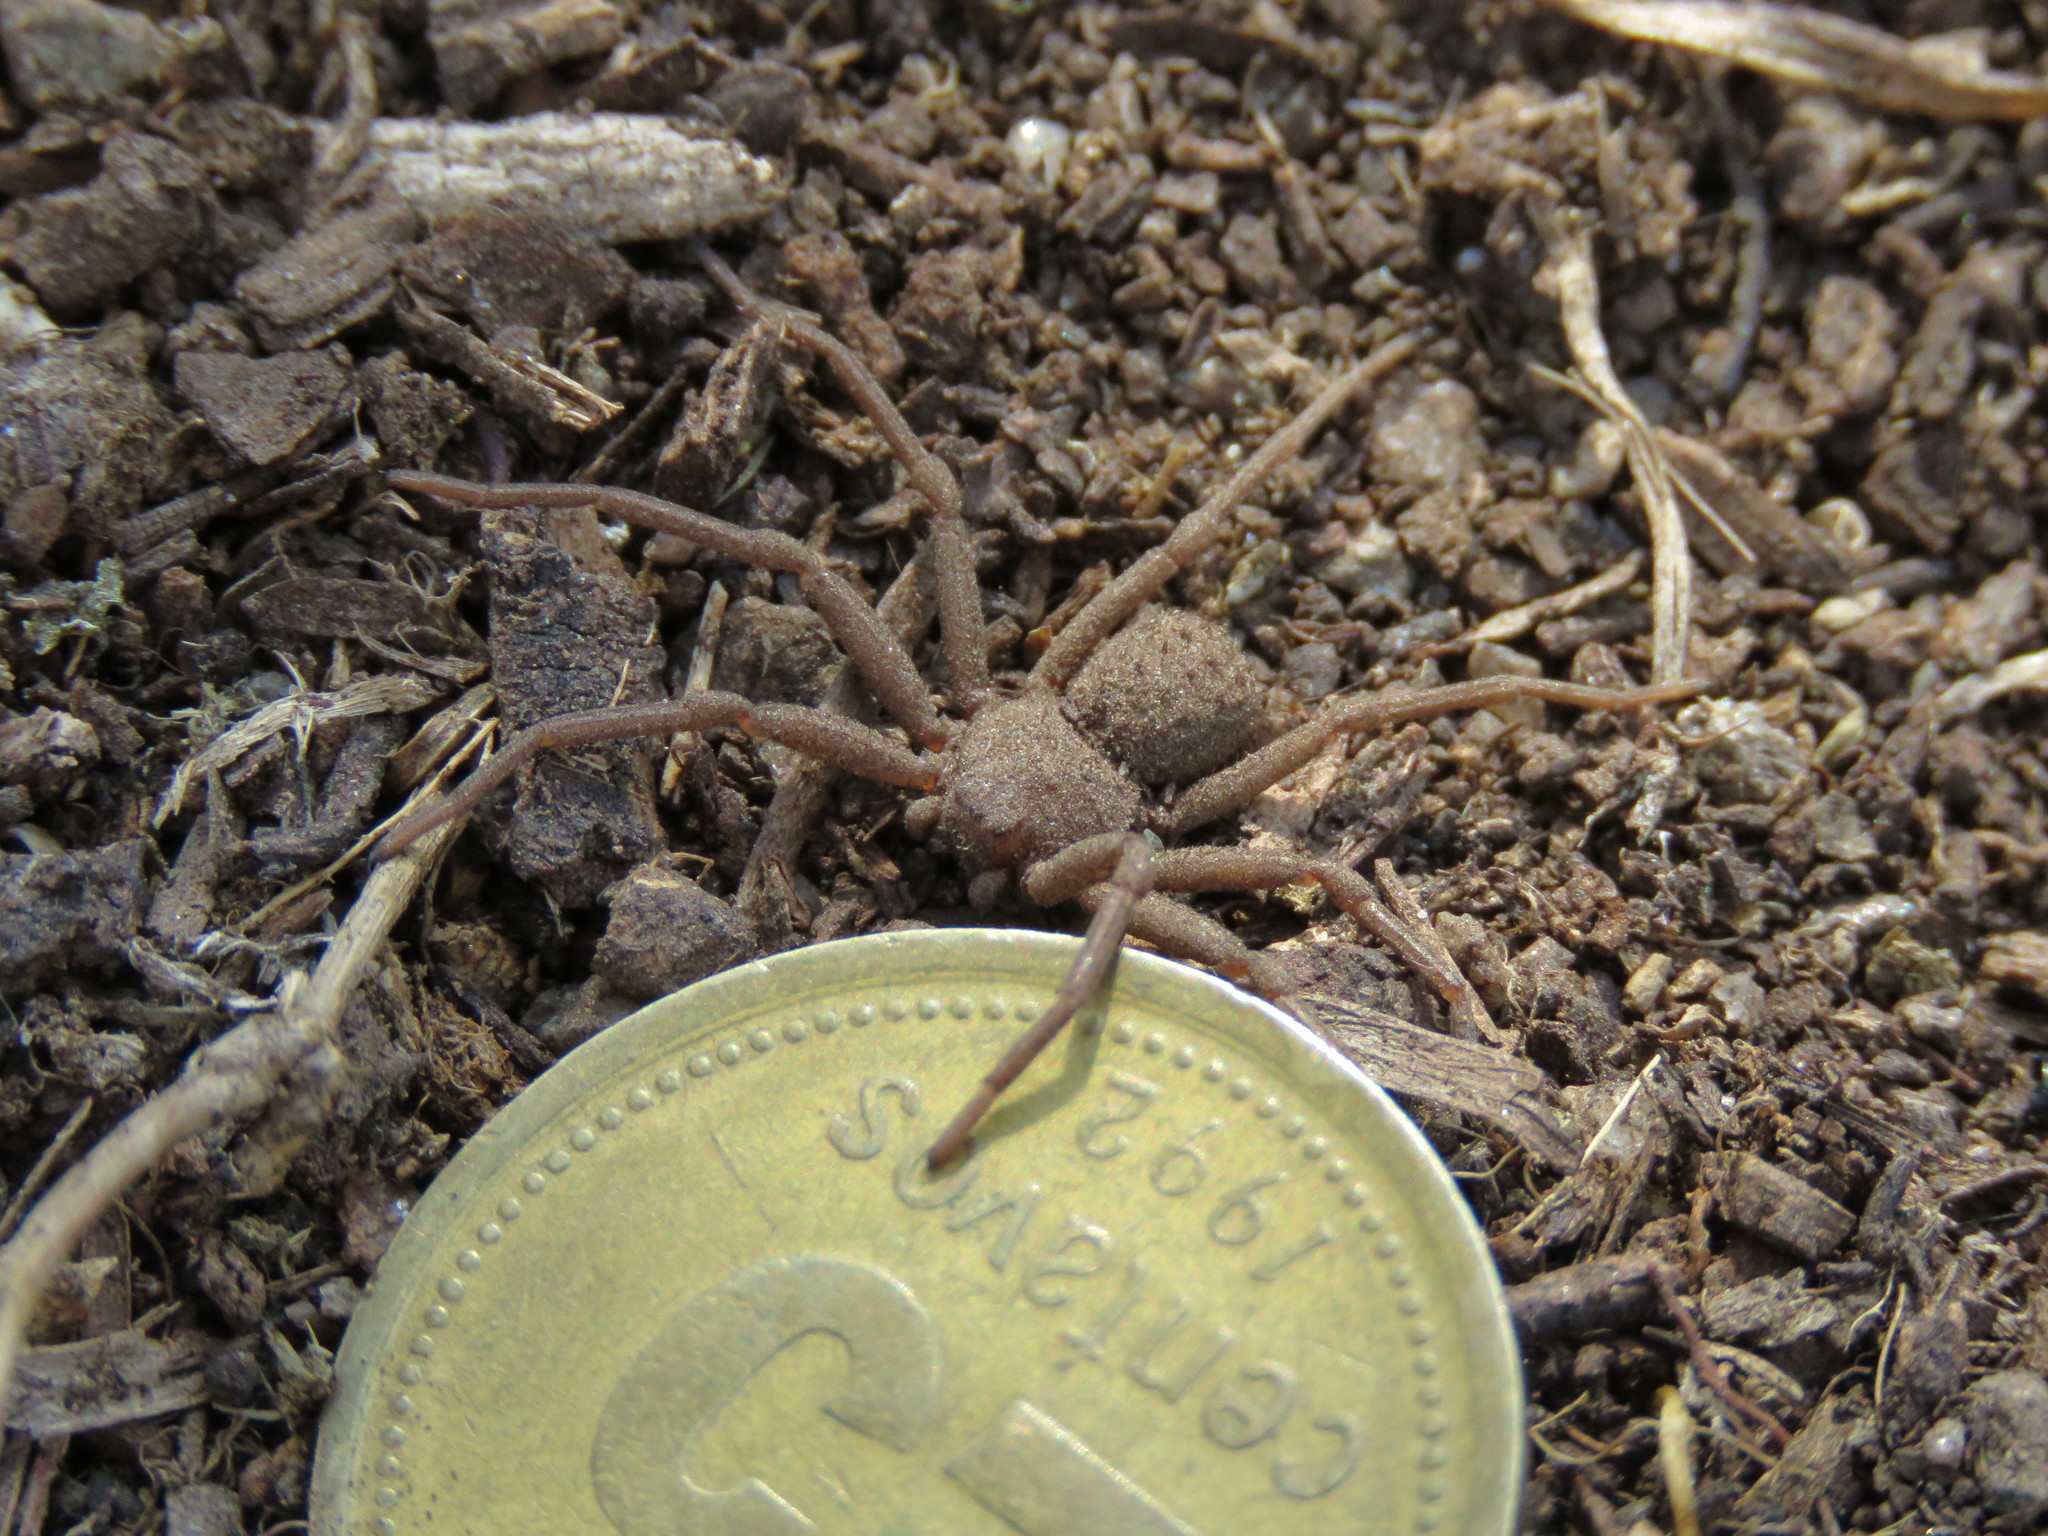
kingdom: Animalia
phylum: Arthropoda
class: Arachnida
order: Araneae
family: Sicariidae
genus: Sicarius
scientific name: Sicarius rupestris
